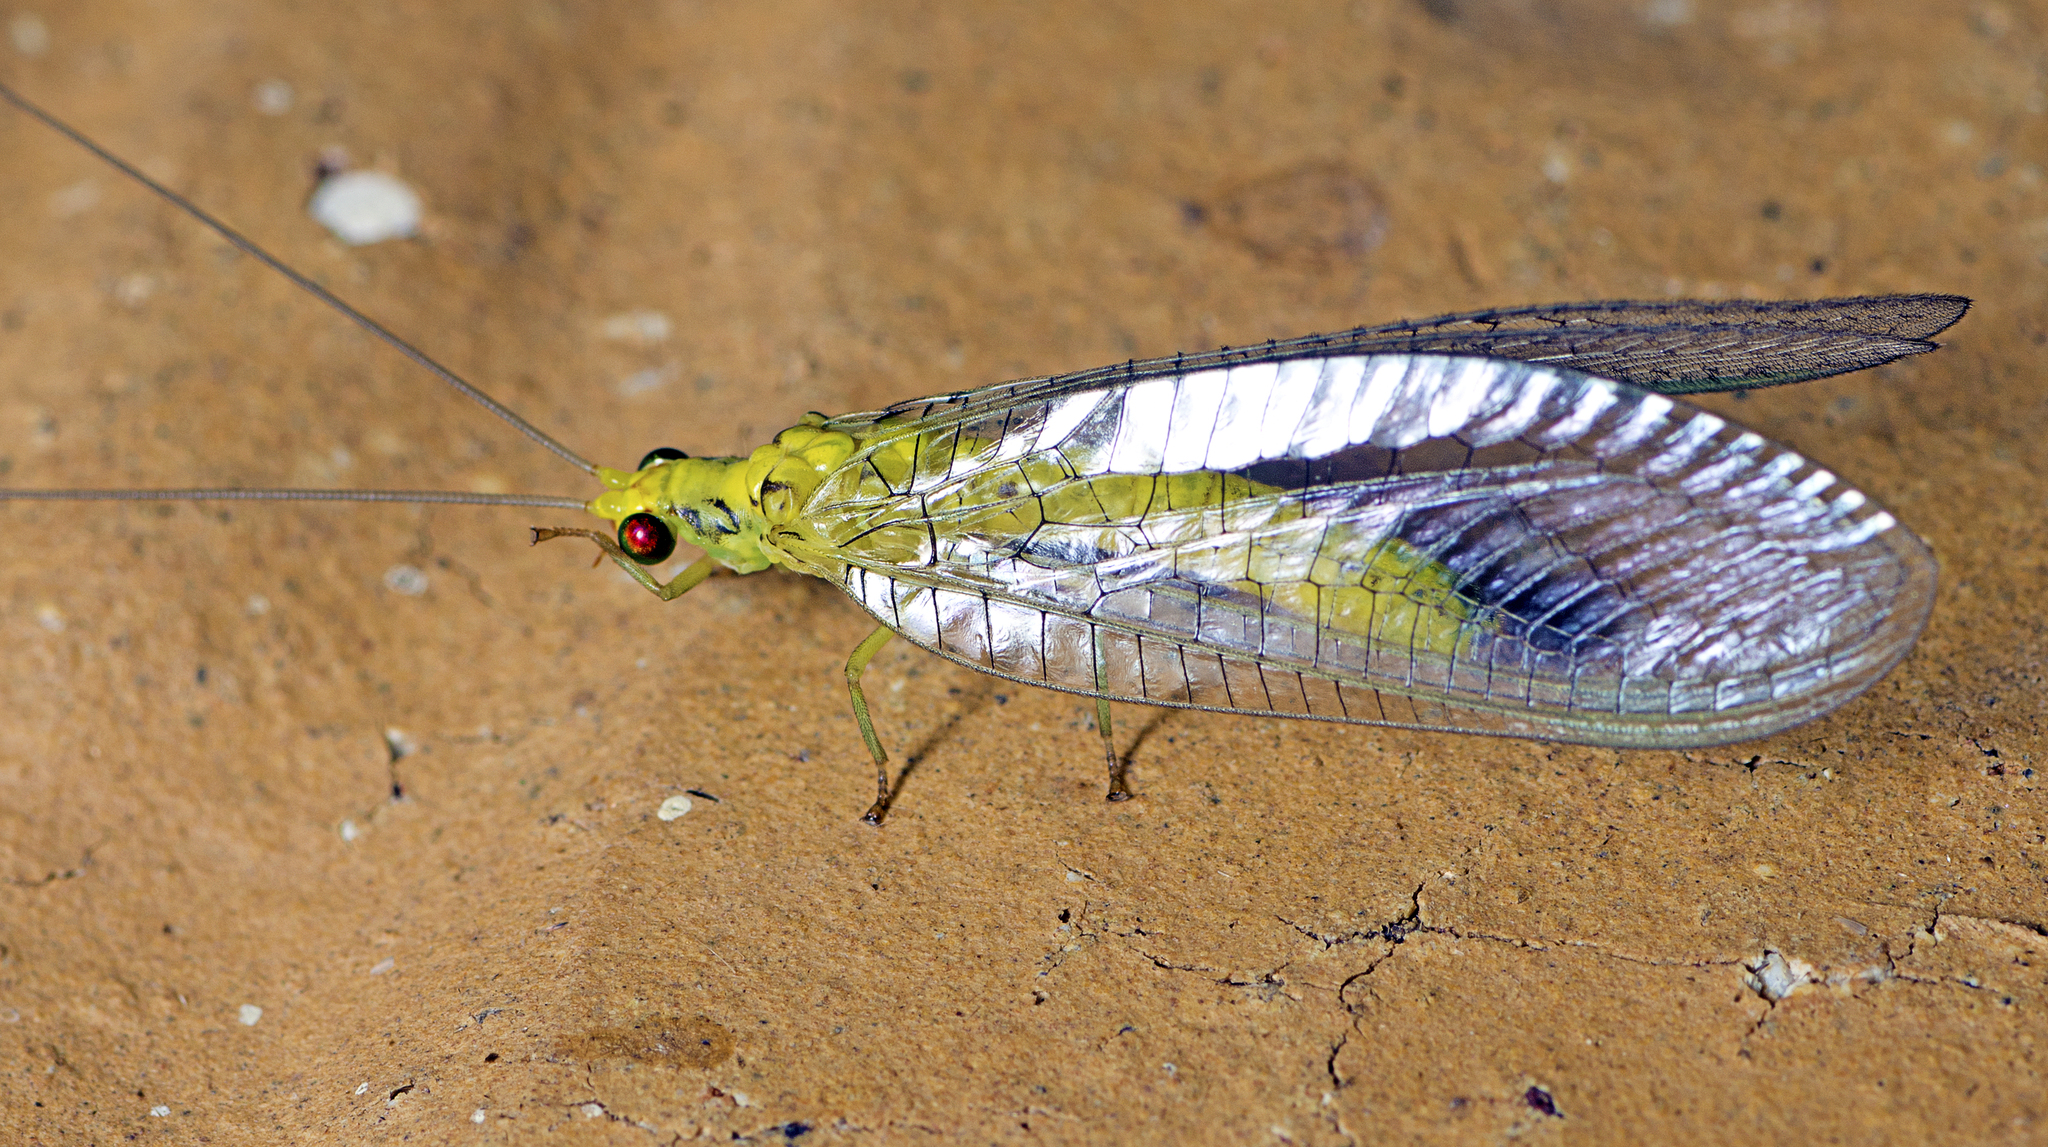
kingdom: Animalia
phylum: Arthropoda
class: Insecta
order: Neuroptera
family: Chrysopidae
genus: Italochrysa
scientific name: Italochrysa insignis
